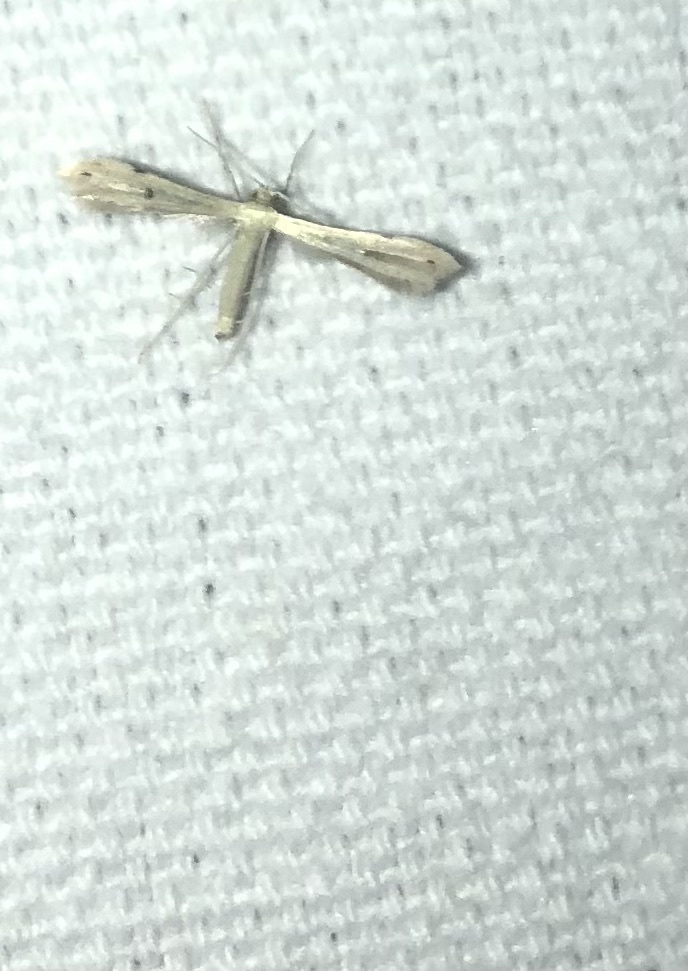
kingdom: Animalia
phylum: Arthropoda
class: Insecta
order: Lepidoptera
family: Pterophoridae
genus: Adaina
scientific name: Adaina
